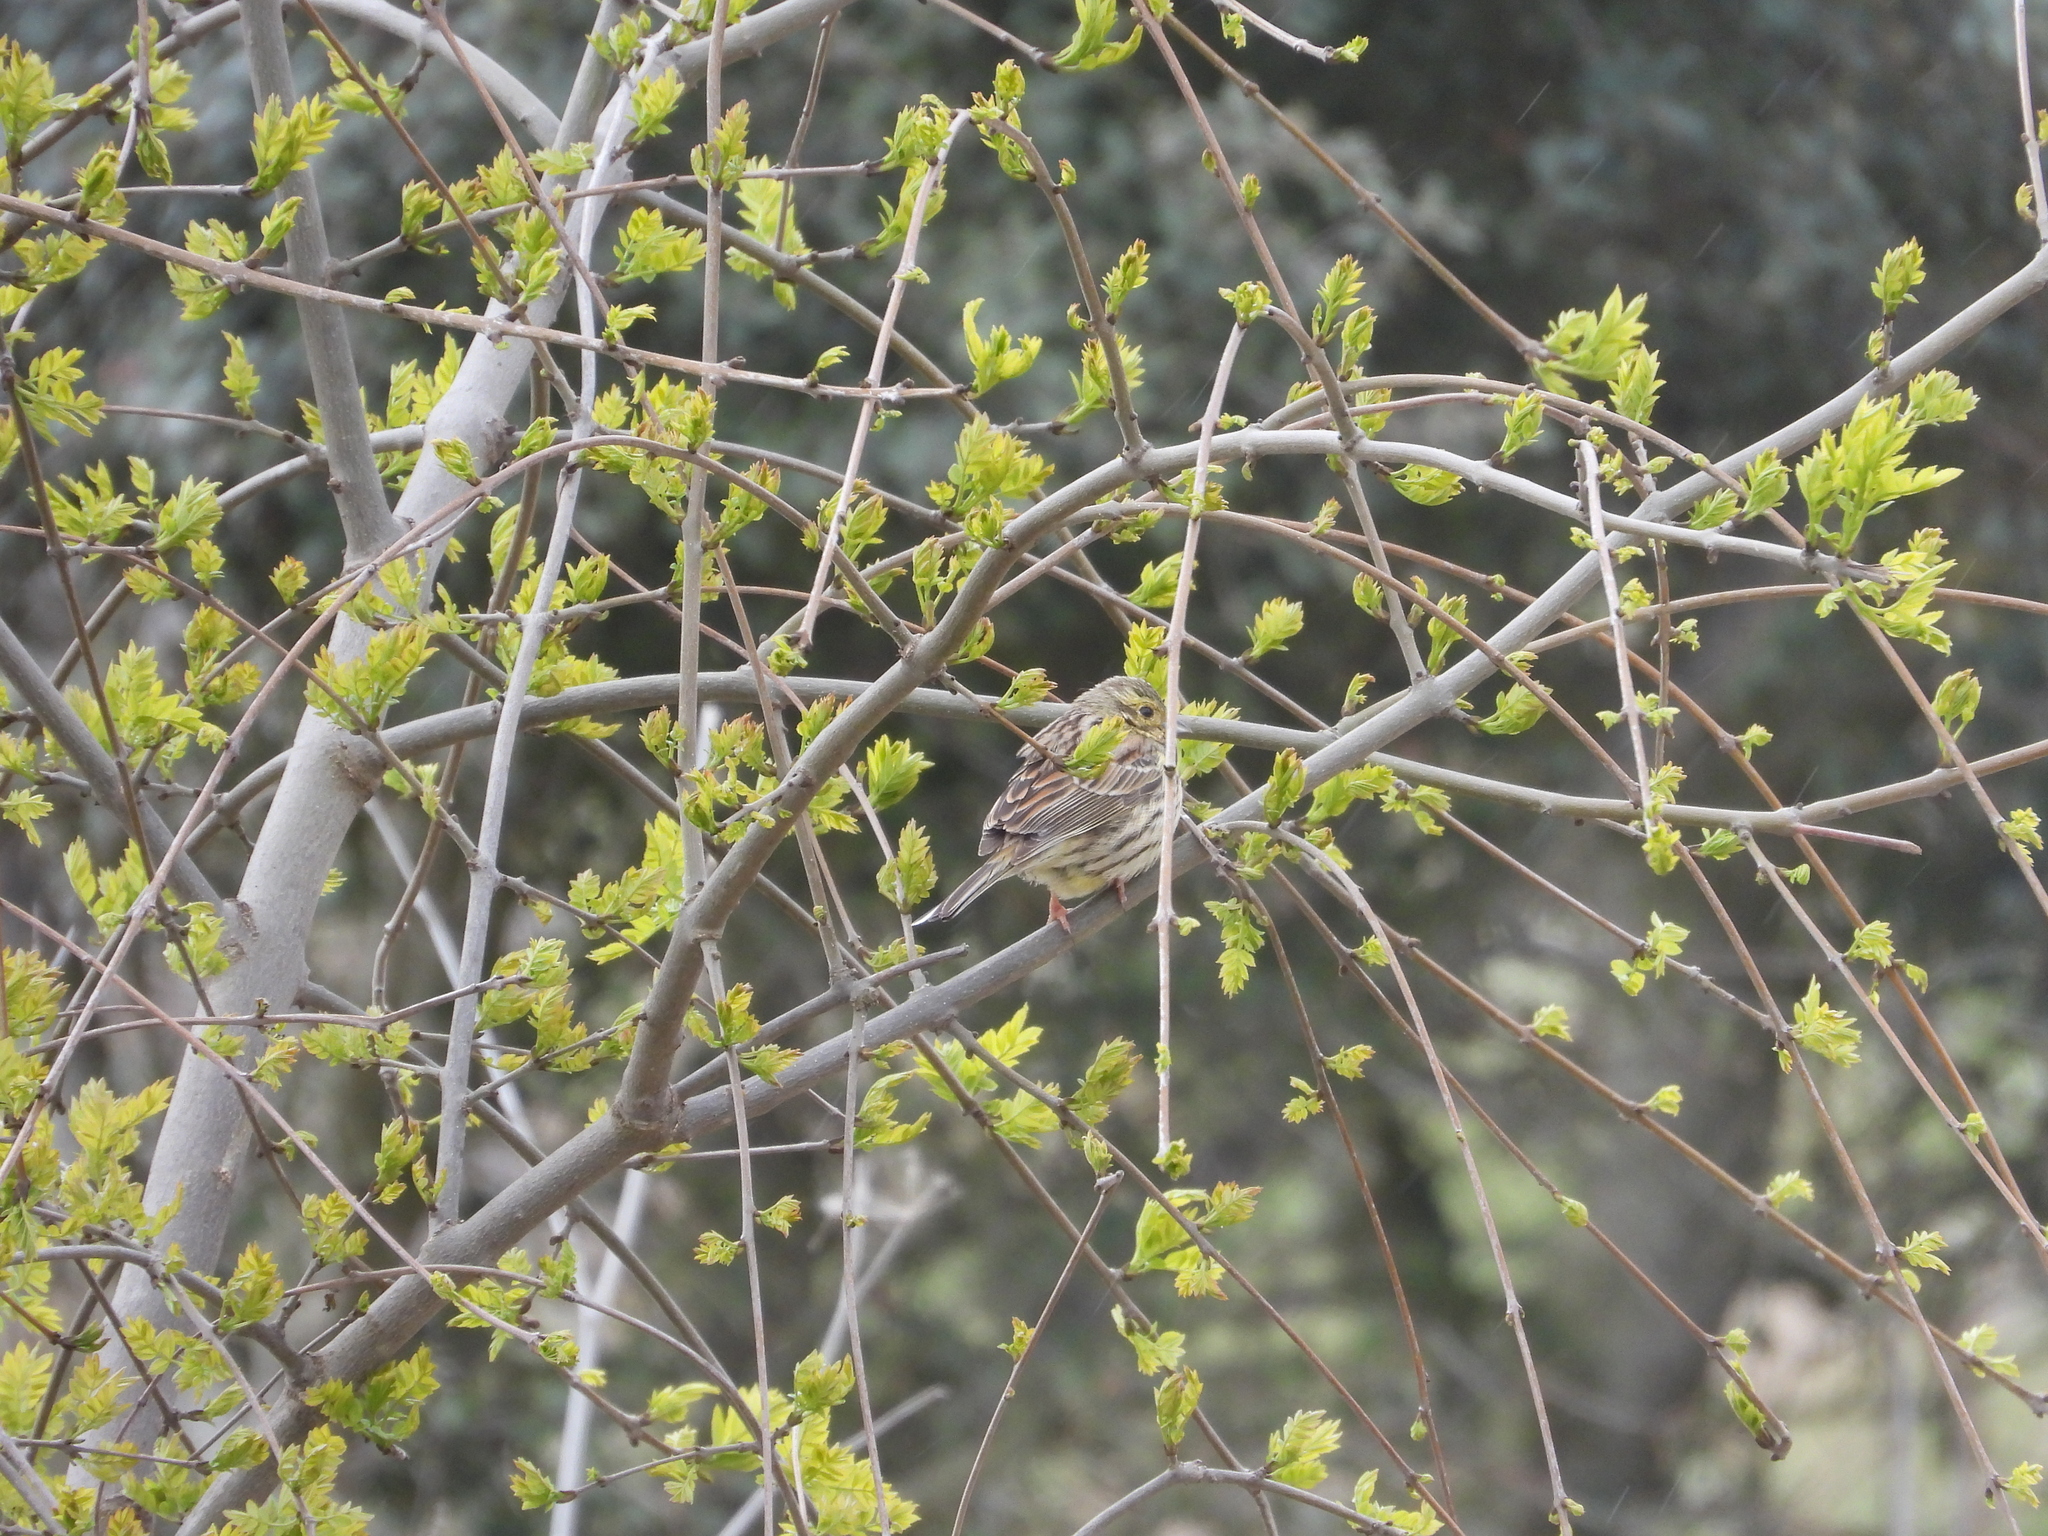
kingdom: Animalia
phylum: Chordata
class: Aves
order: Passeriformes
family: Emberizidae
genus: Emberiza
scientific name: Emberiza cirlus
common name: Cirl bunting
